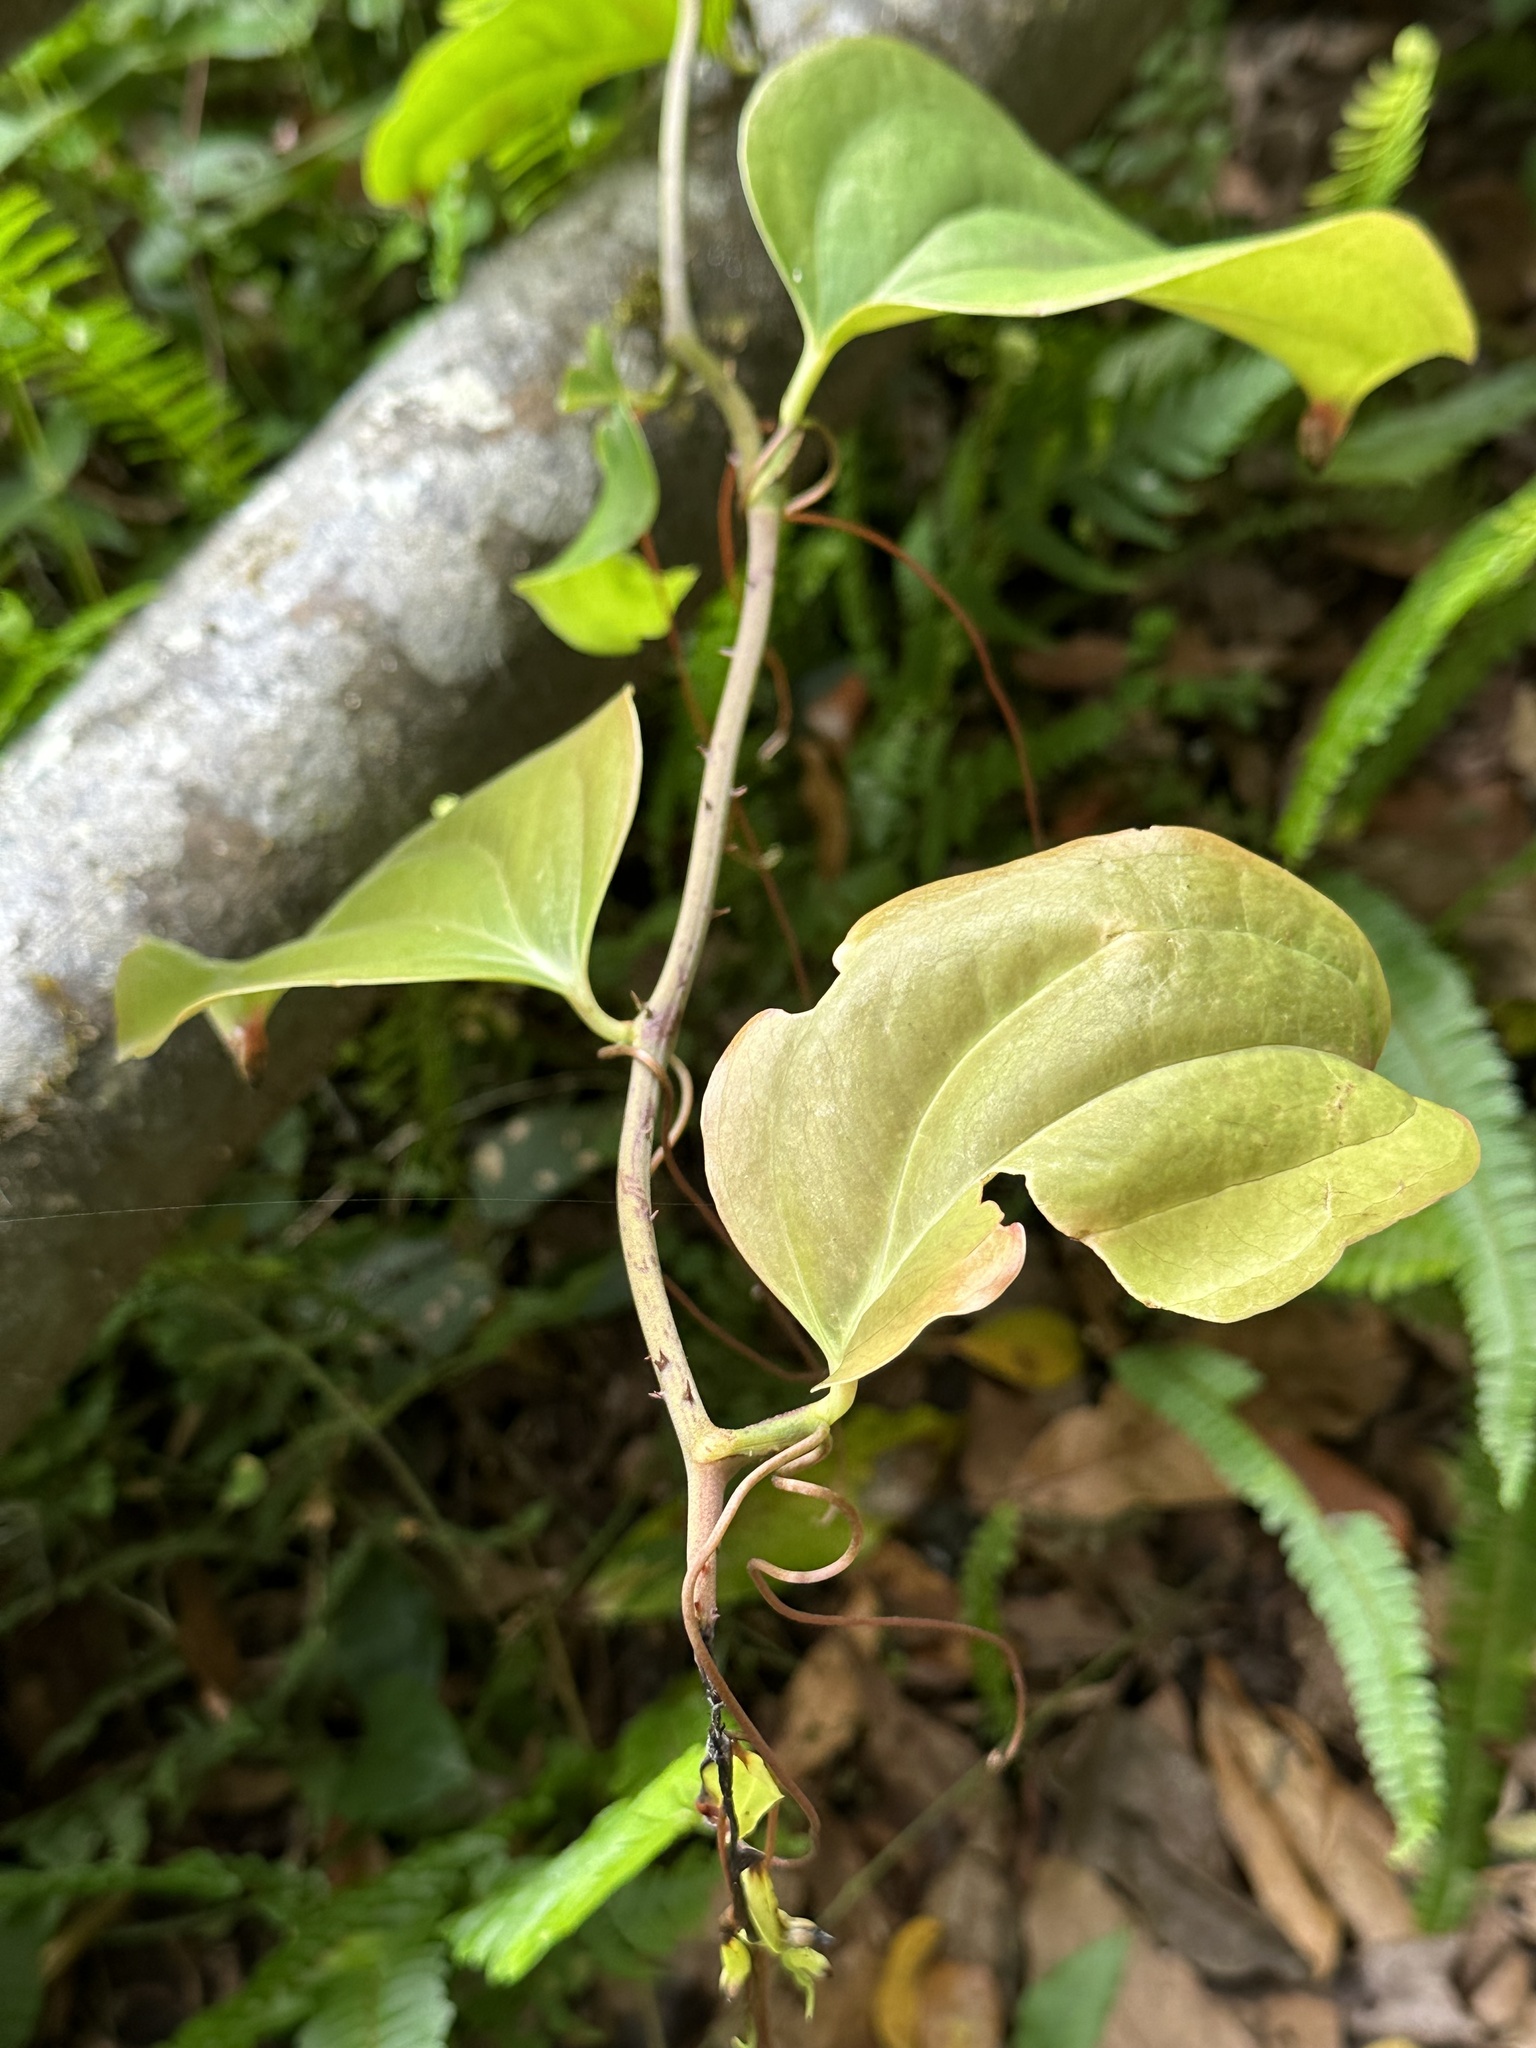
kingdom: Plantae
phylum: Tracheophyta
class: Liliopsida
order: Liliales
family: Smilacaceae
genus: Smilax
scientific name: Smilax bracteata
